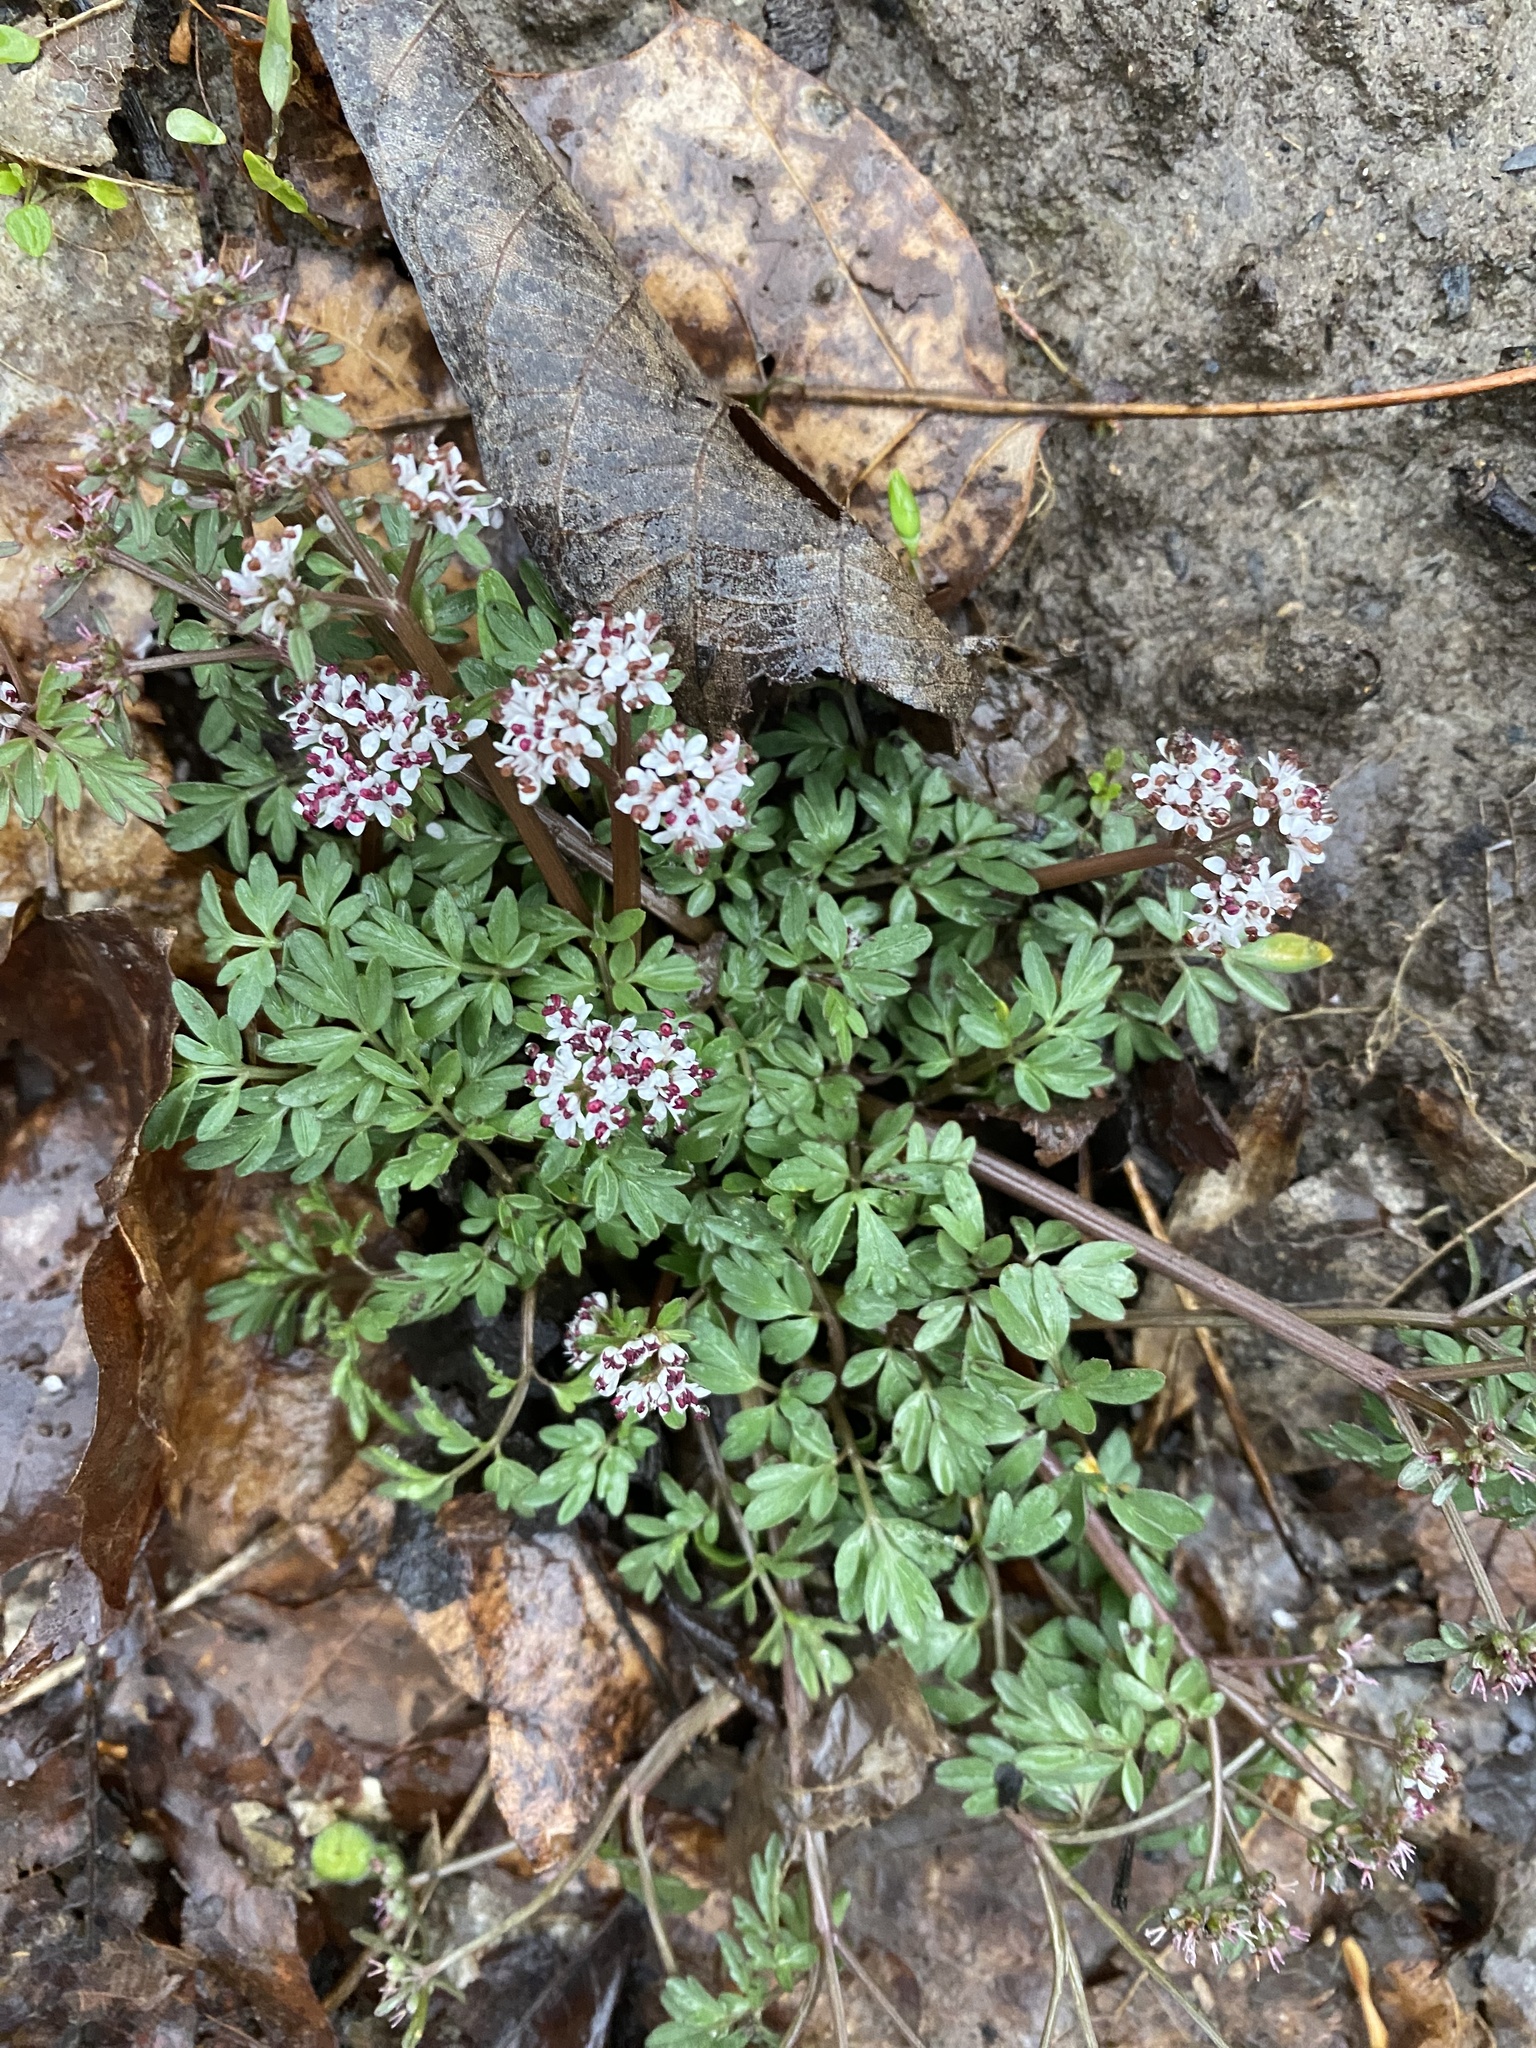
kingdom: Plantae
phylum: Tracheophyta
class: Magnoliopsida
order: Apiales
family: Apiaceae
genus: Erigenia
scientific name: Erigenia bulbosa
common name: Pepper-and-salt
